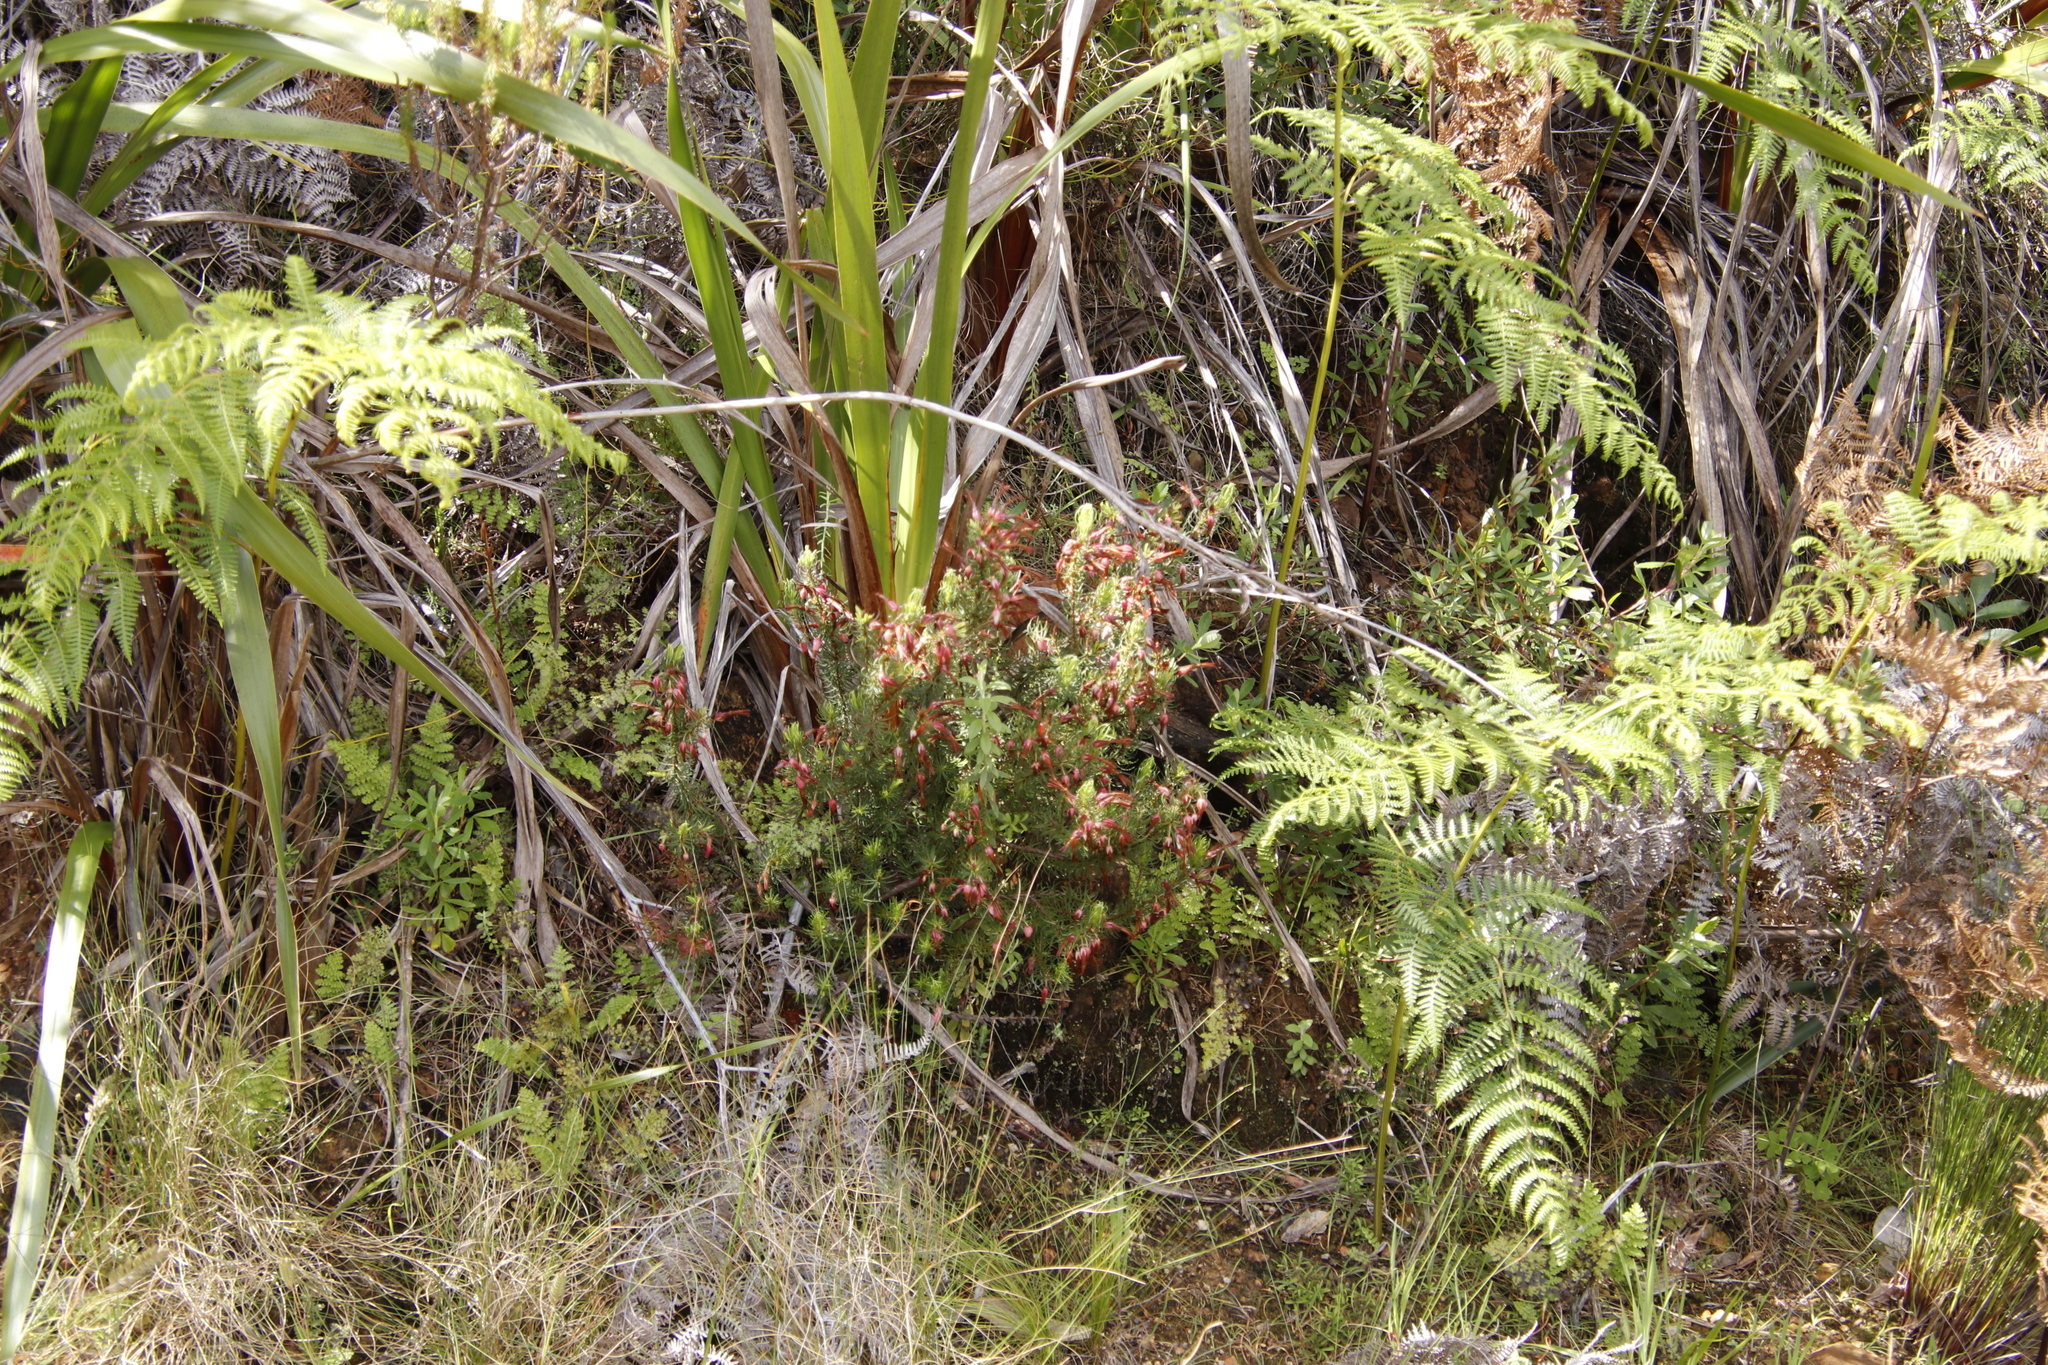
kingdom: Plantae
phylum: Tracheophyta
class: Magnoliopsida
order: Ericales
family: Ericaceae
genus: Erica
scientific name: Erica plukenetii
